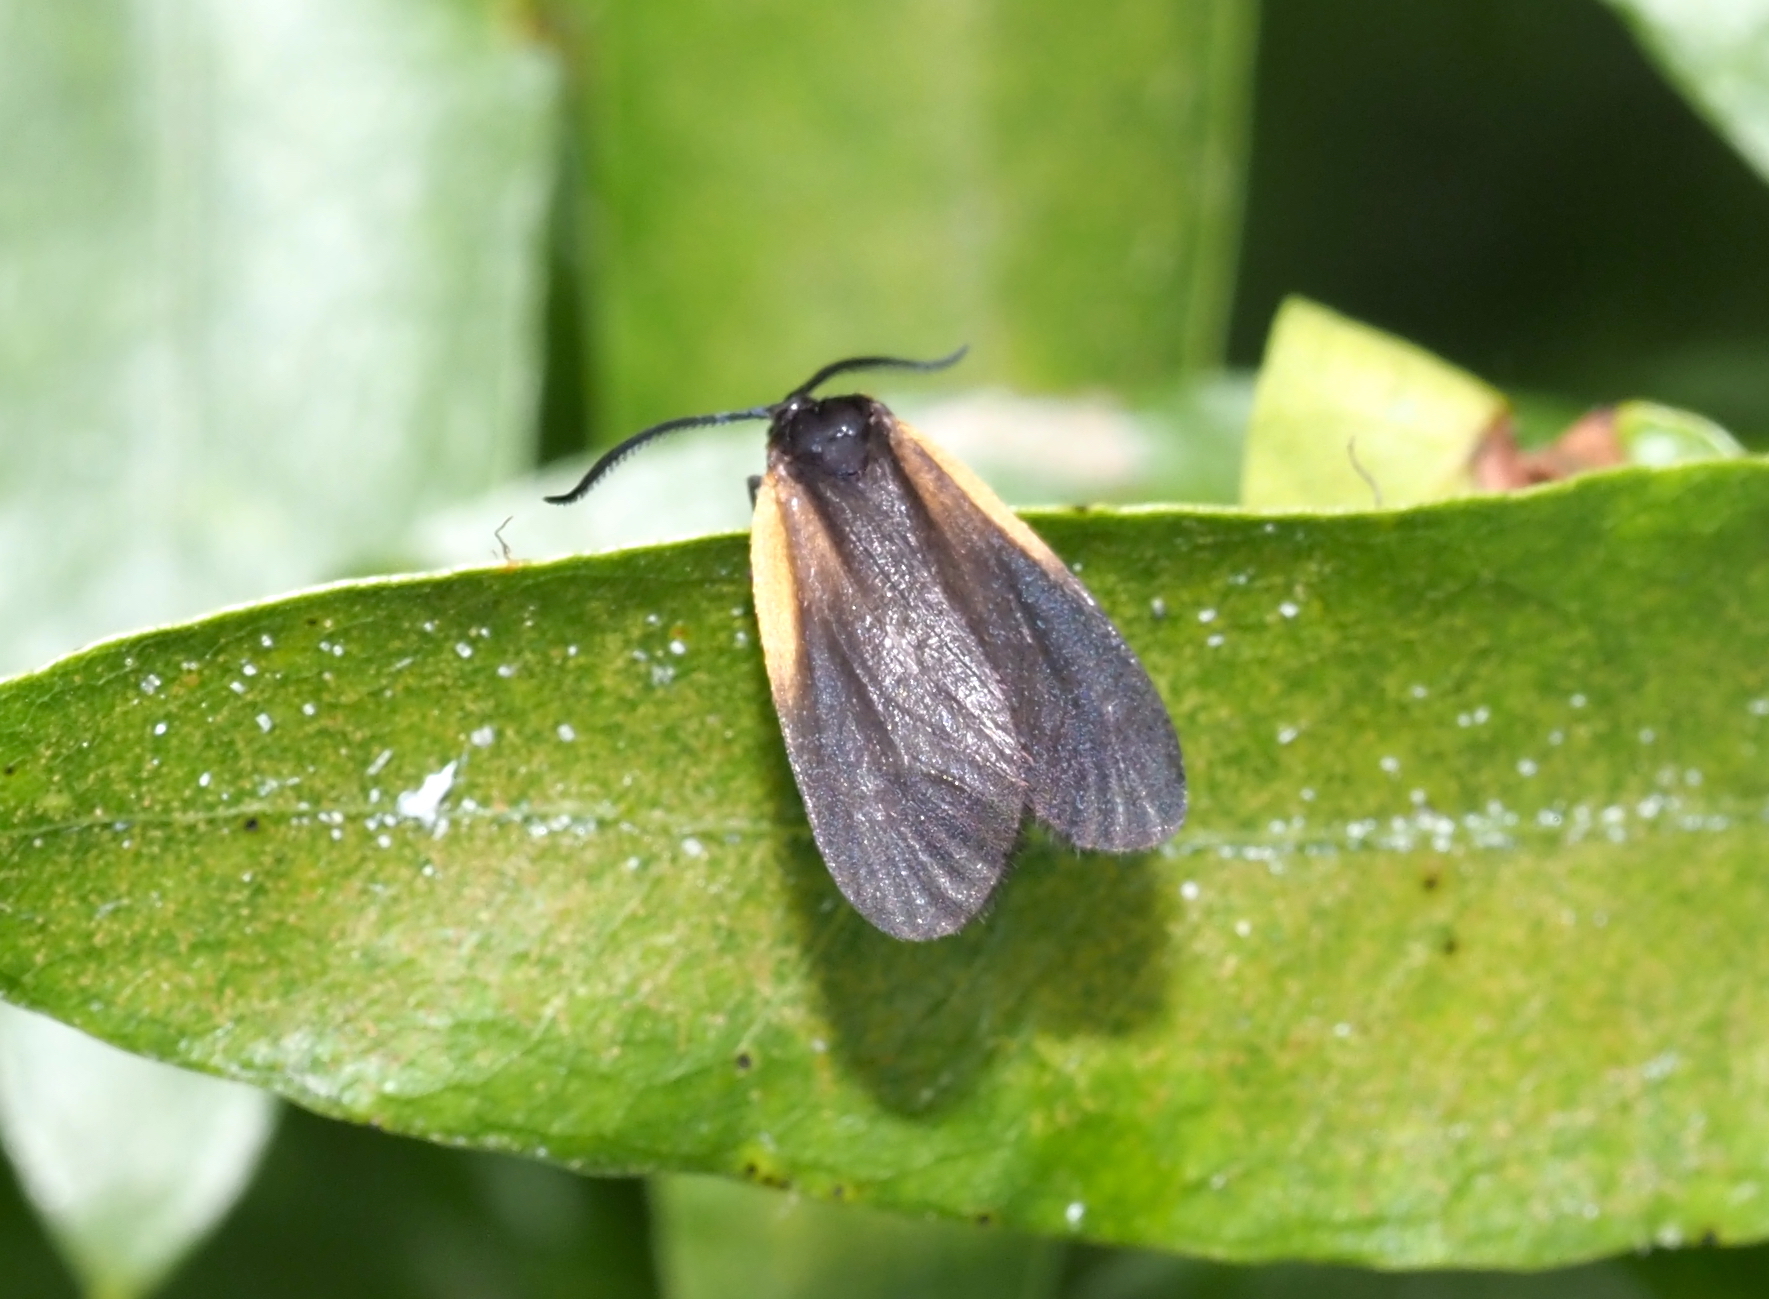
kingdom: Animalia
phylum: Arthropoda
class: Insecta
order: Lepidoptera
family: Zygaenidae
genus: Malthaca
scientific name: Malthaca dimidiata
